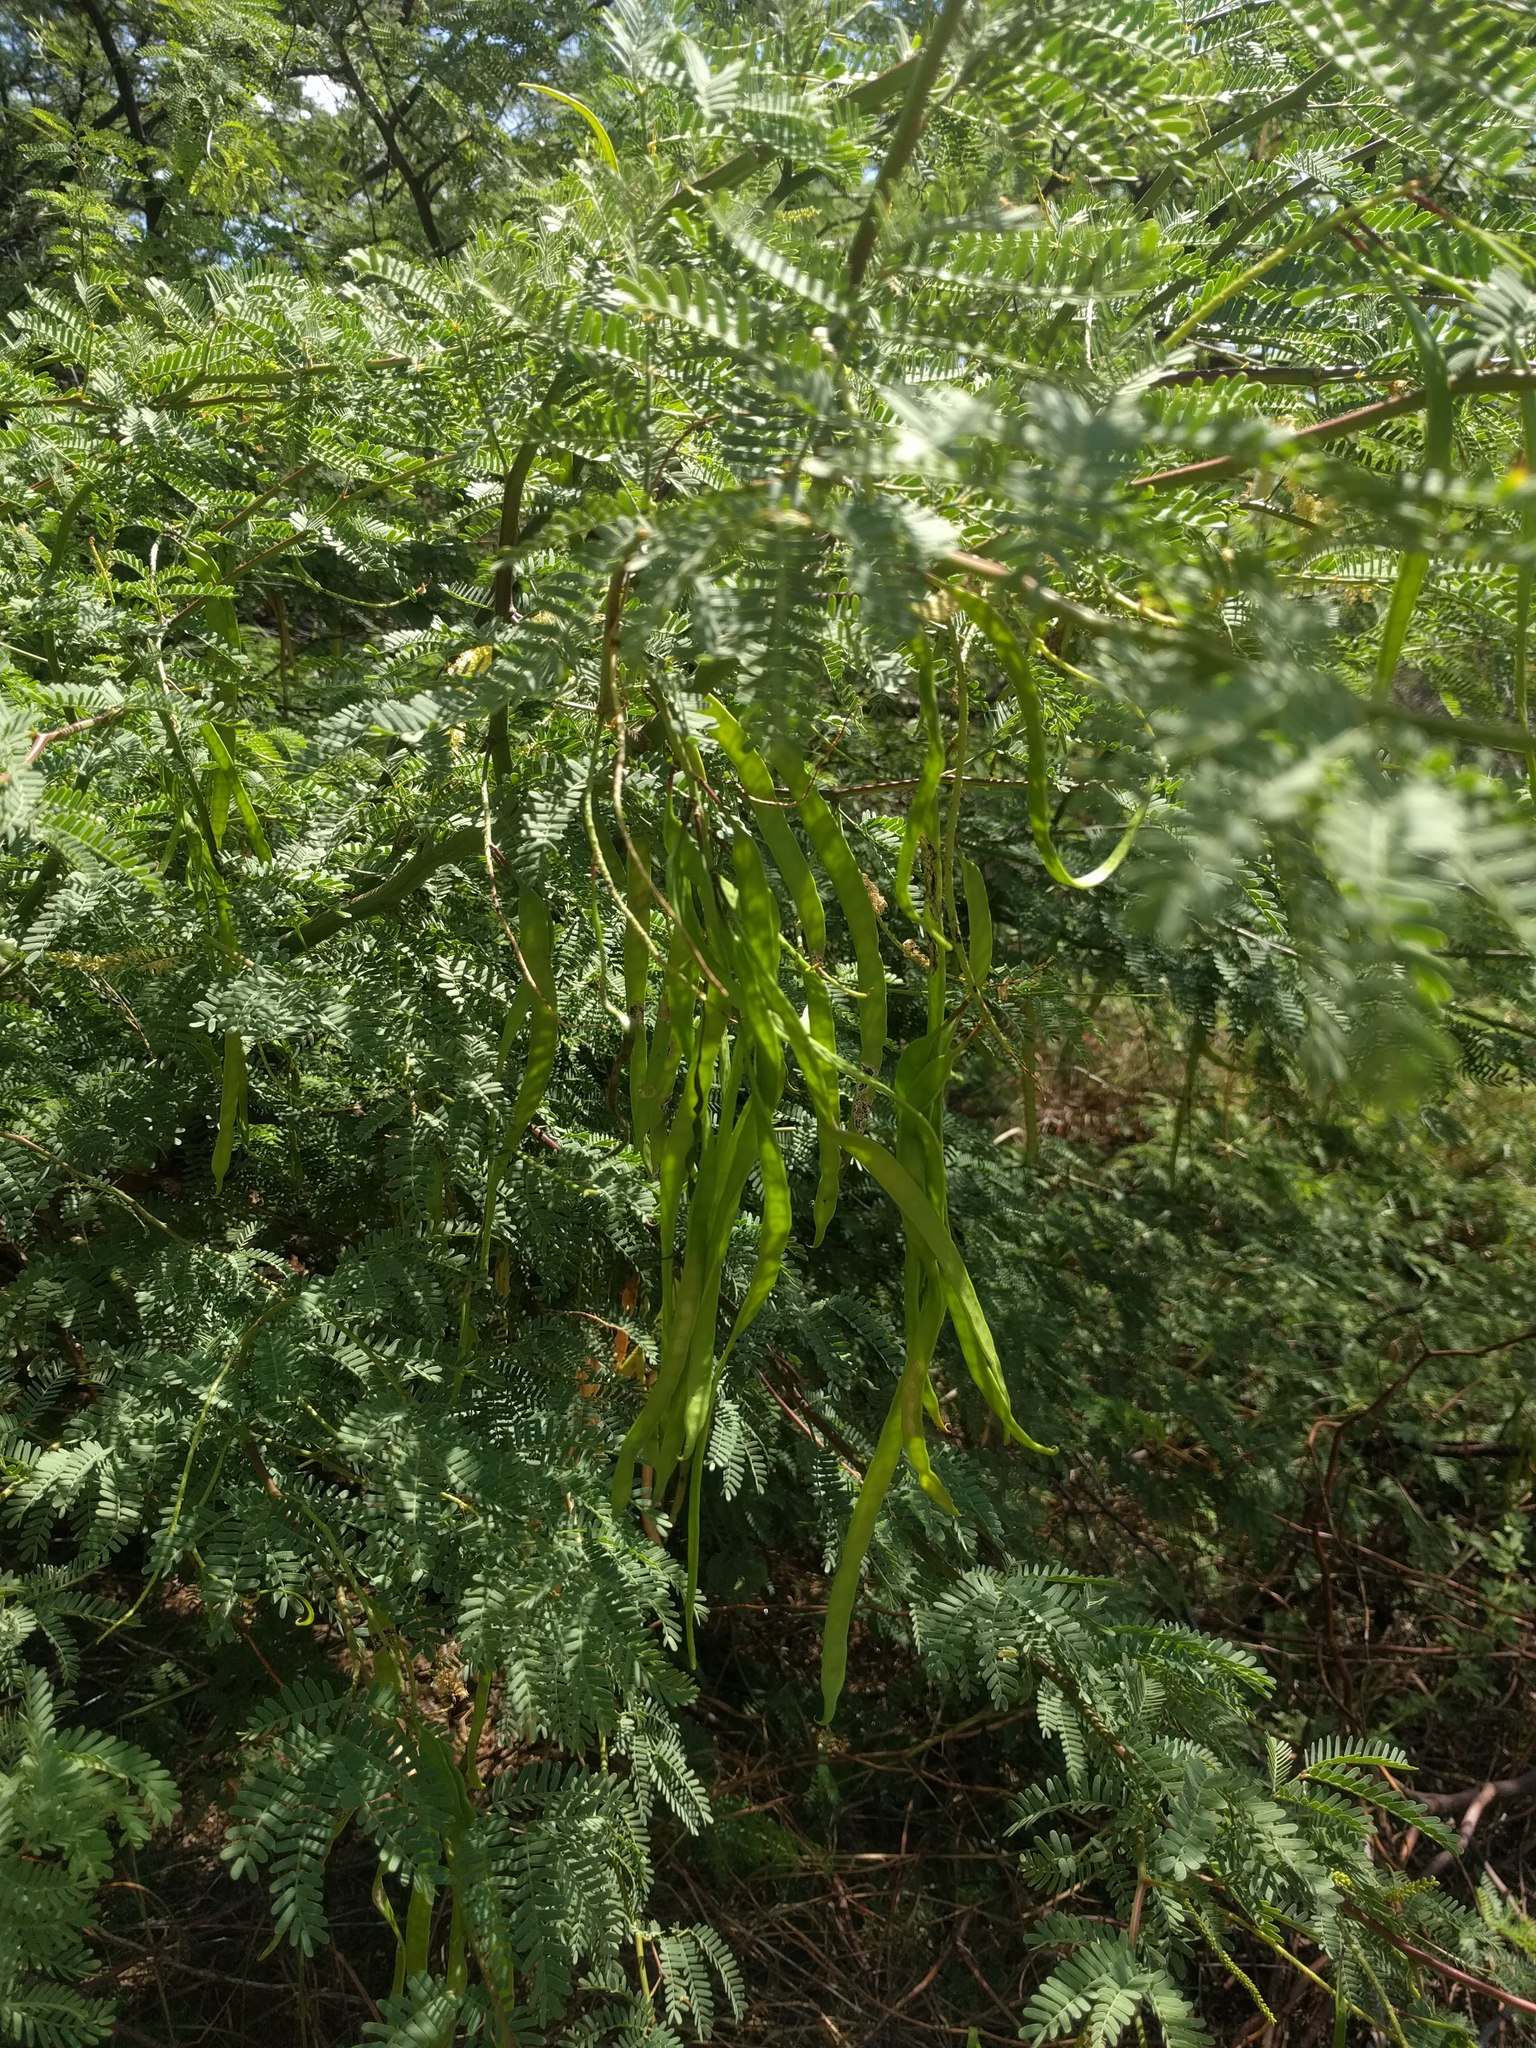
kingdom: Plantae
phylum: Tracheophyta
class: Magnoliopsida
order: Fabales
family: Fabaceae
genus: Prosopis
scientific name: Prosopis juliflora
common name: Mesquite
